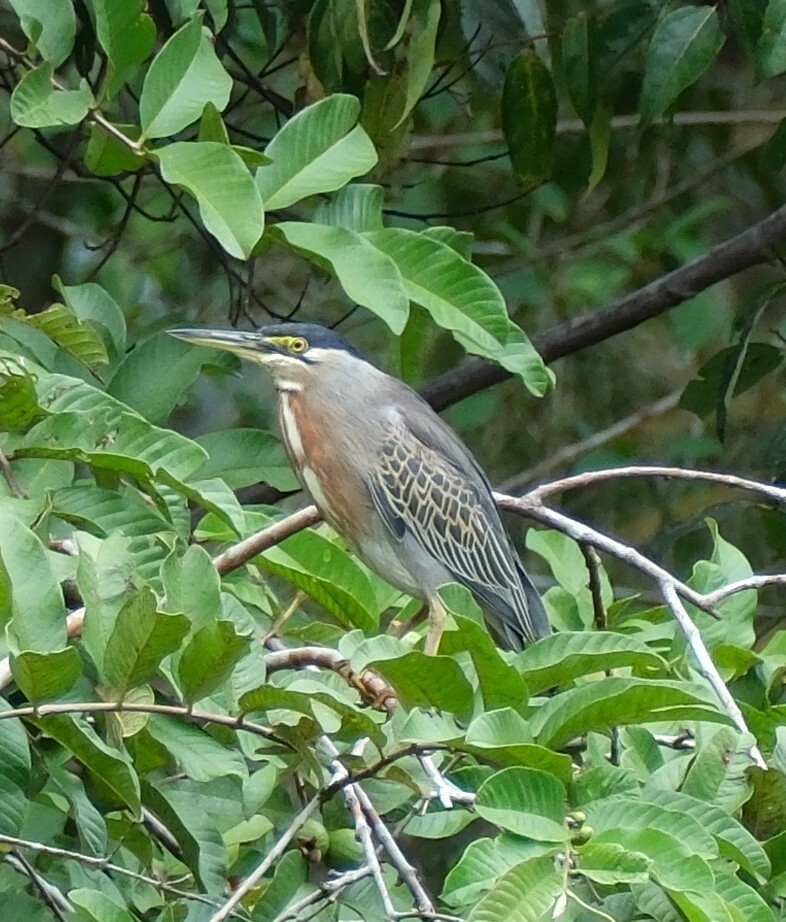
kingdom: Animalia
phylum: Chordata
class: Aves
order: Pelecaniformes
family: Ardeidae
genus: Butorides
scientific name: Butorides striata
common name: Striated heron
